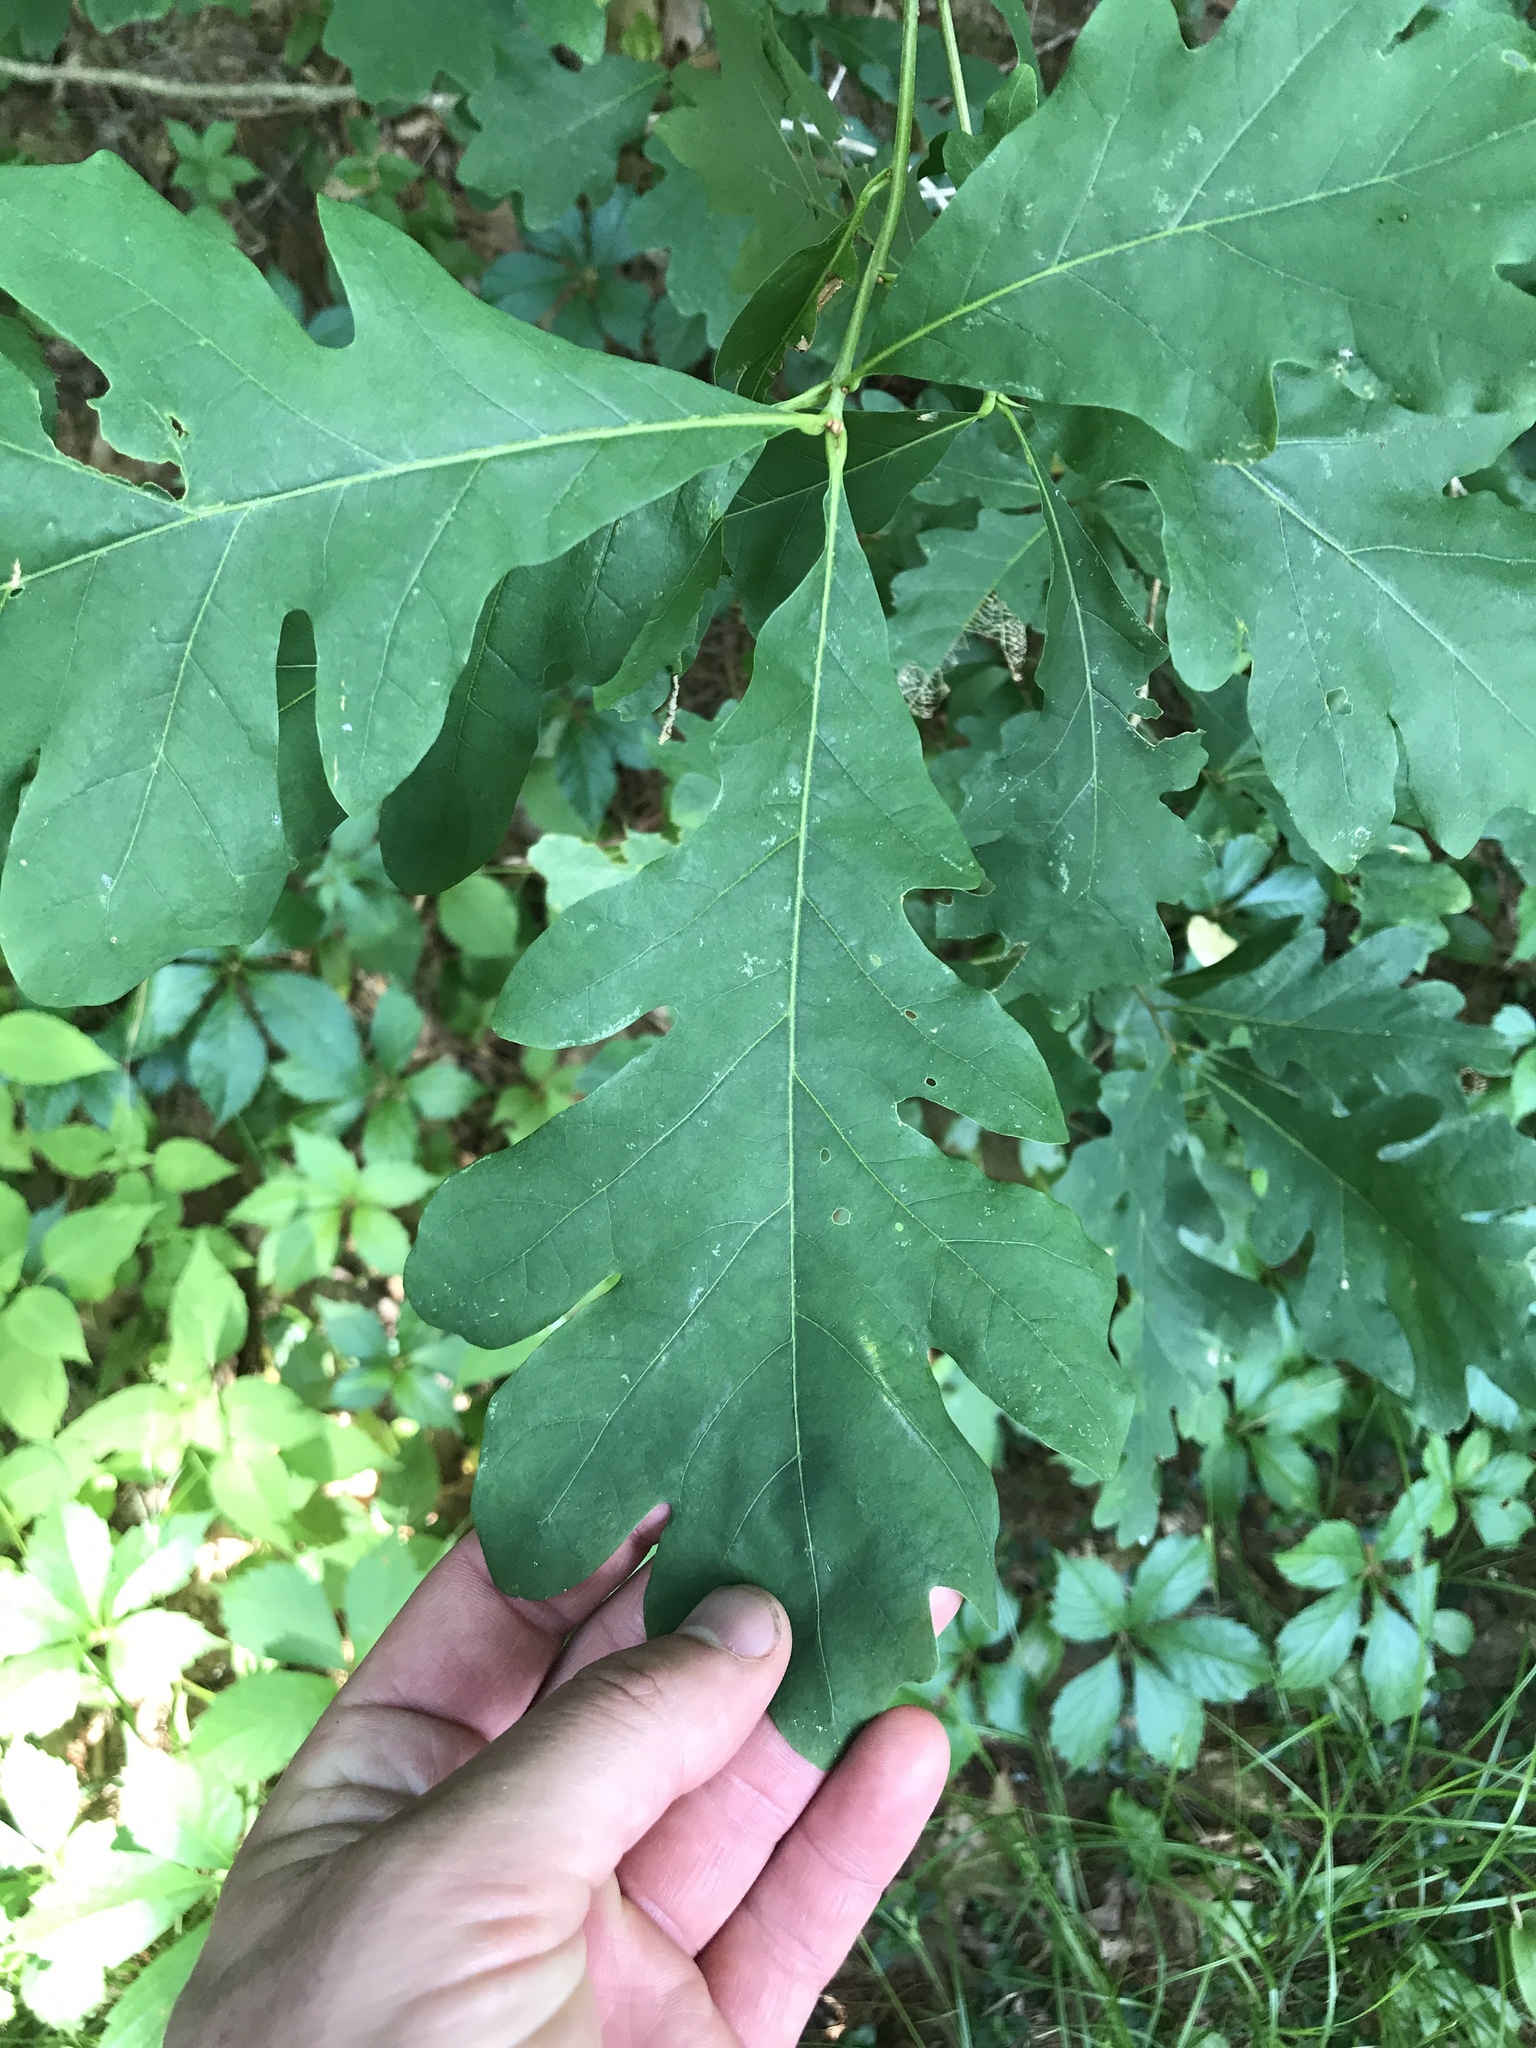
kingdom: Plantae
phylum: Tracheophyta
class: Magnoliopsida
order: Fagales
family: Fagaceae
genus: Quercus
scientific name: Quercus alba
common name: White oak
